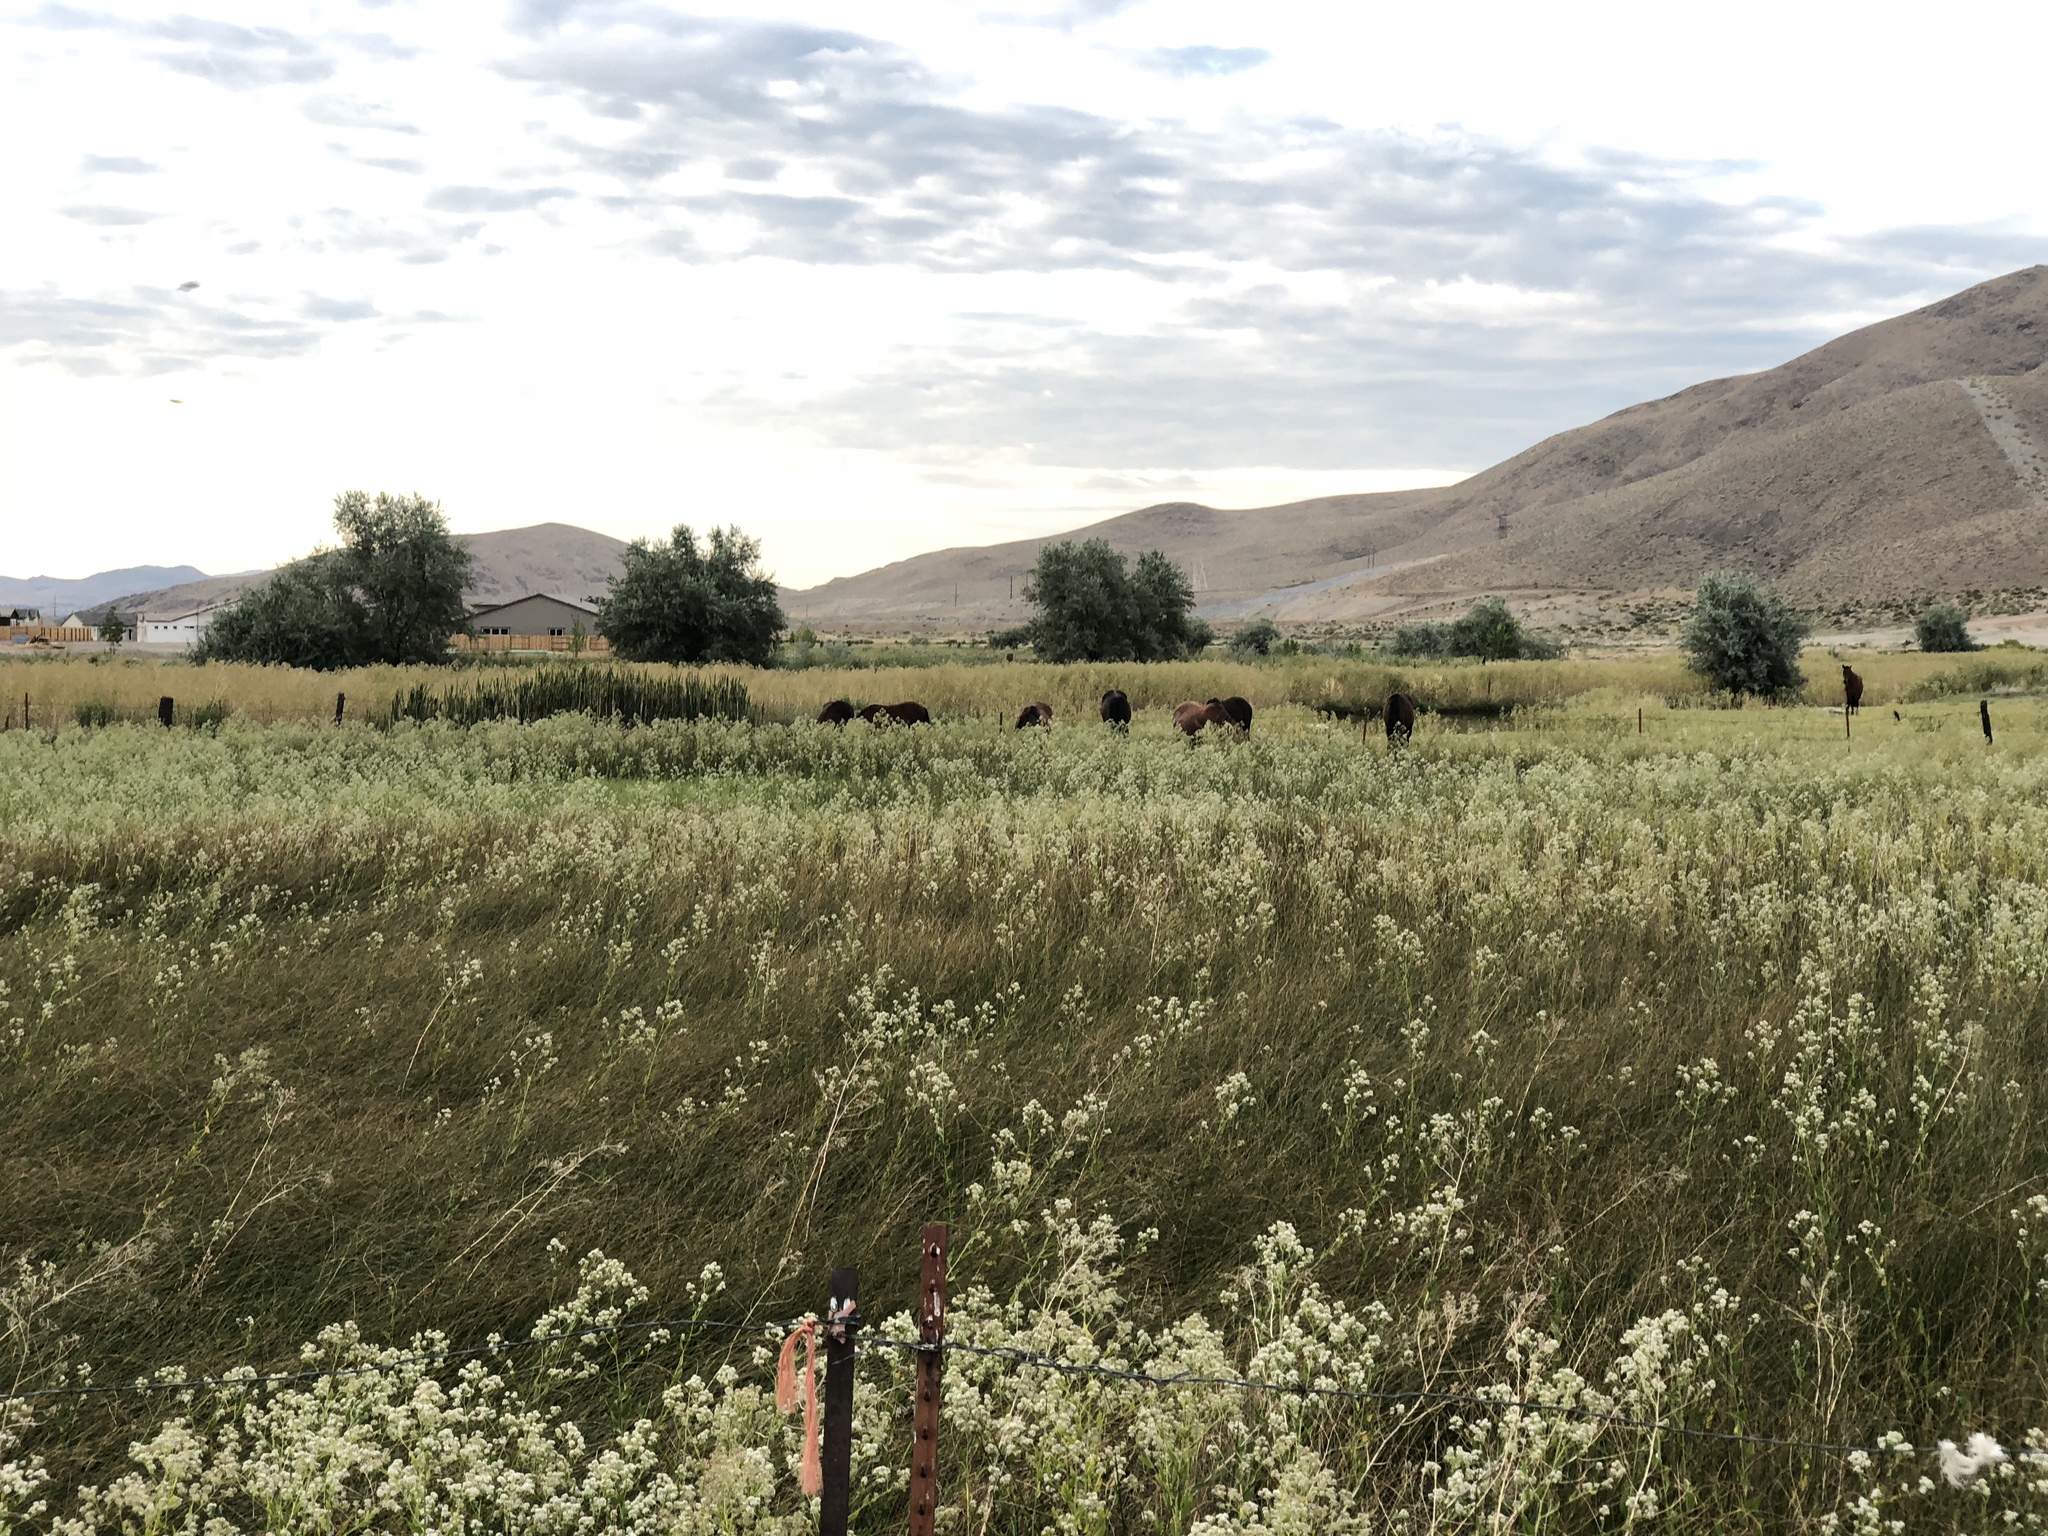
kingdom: Animalia
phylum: Chordata
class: Mammalia
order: Perissodactyla
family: Equidae
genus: Equus
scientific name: Equus caballus
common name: Horse
